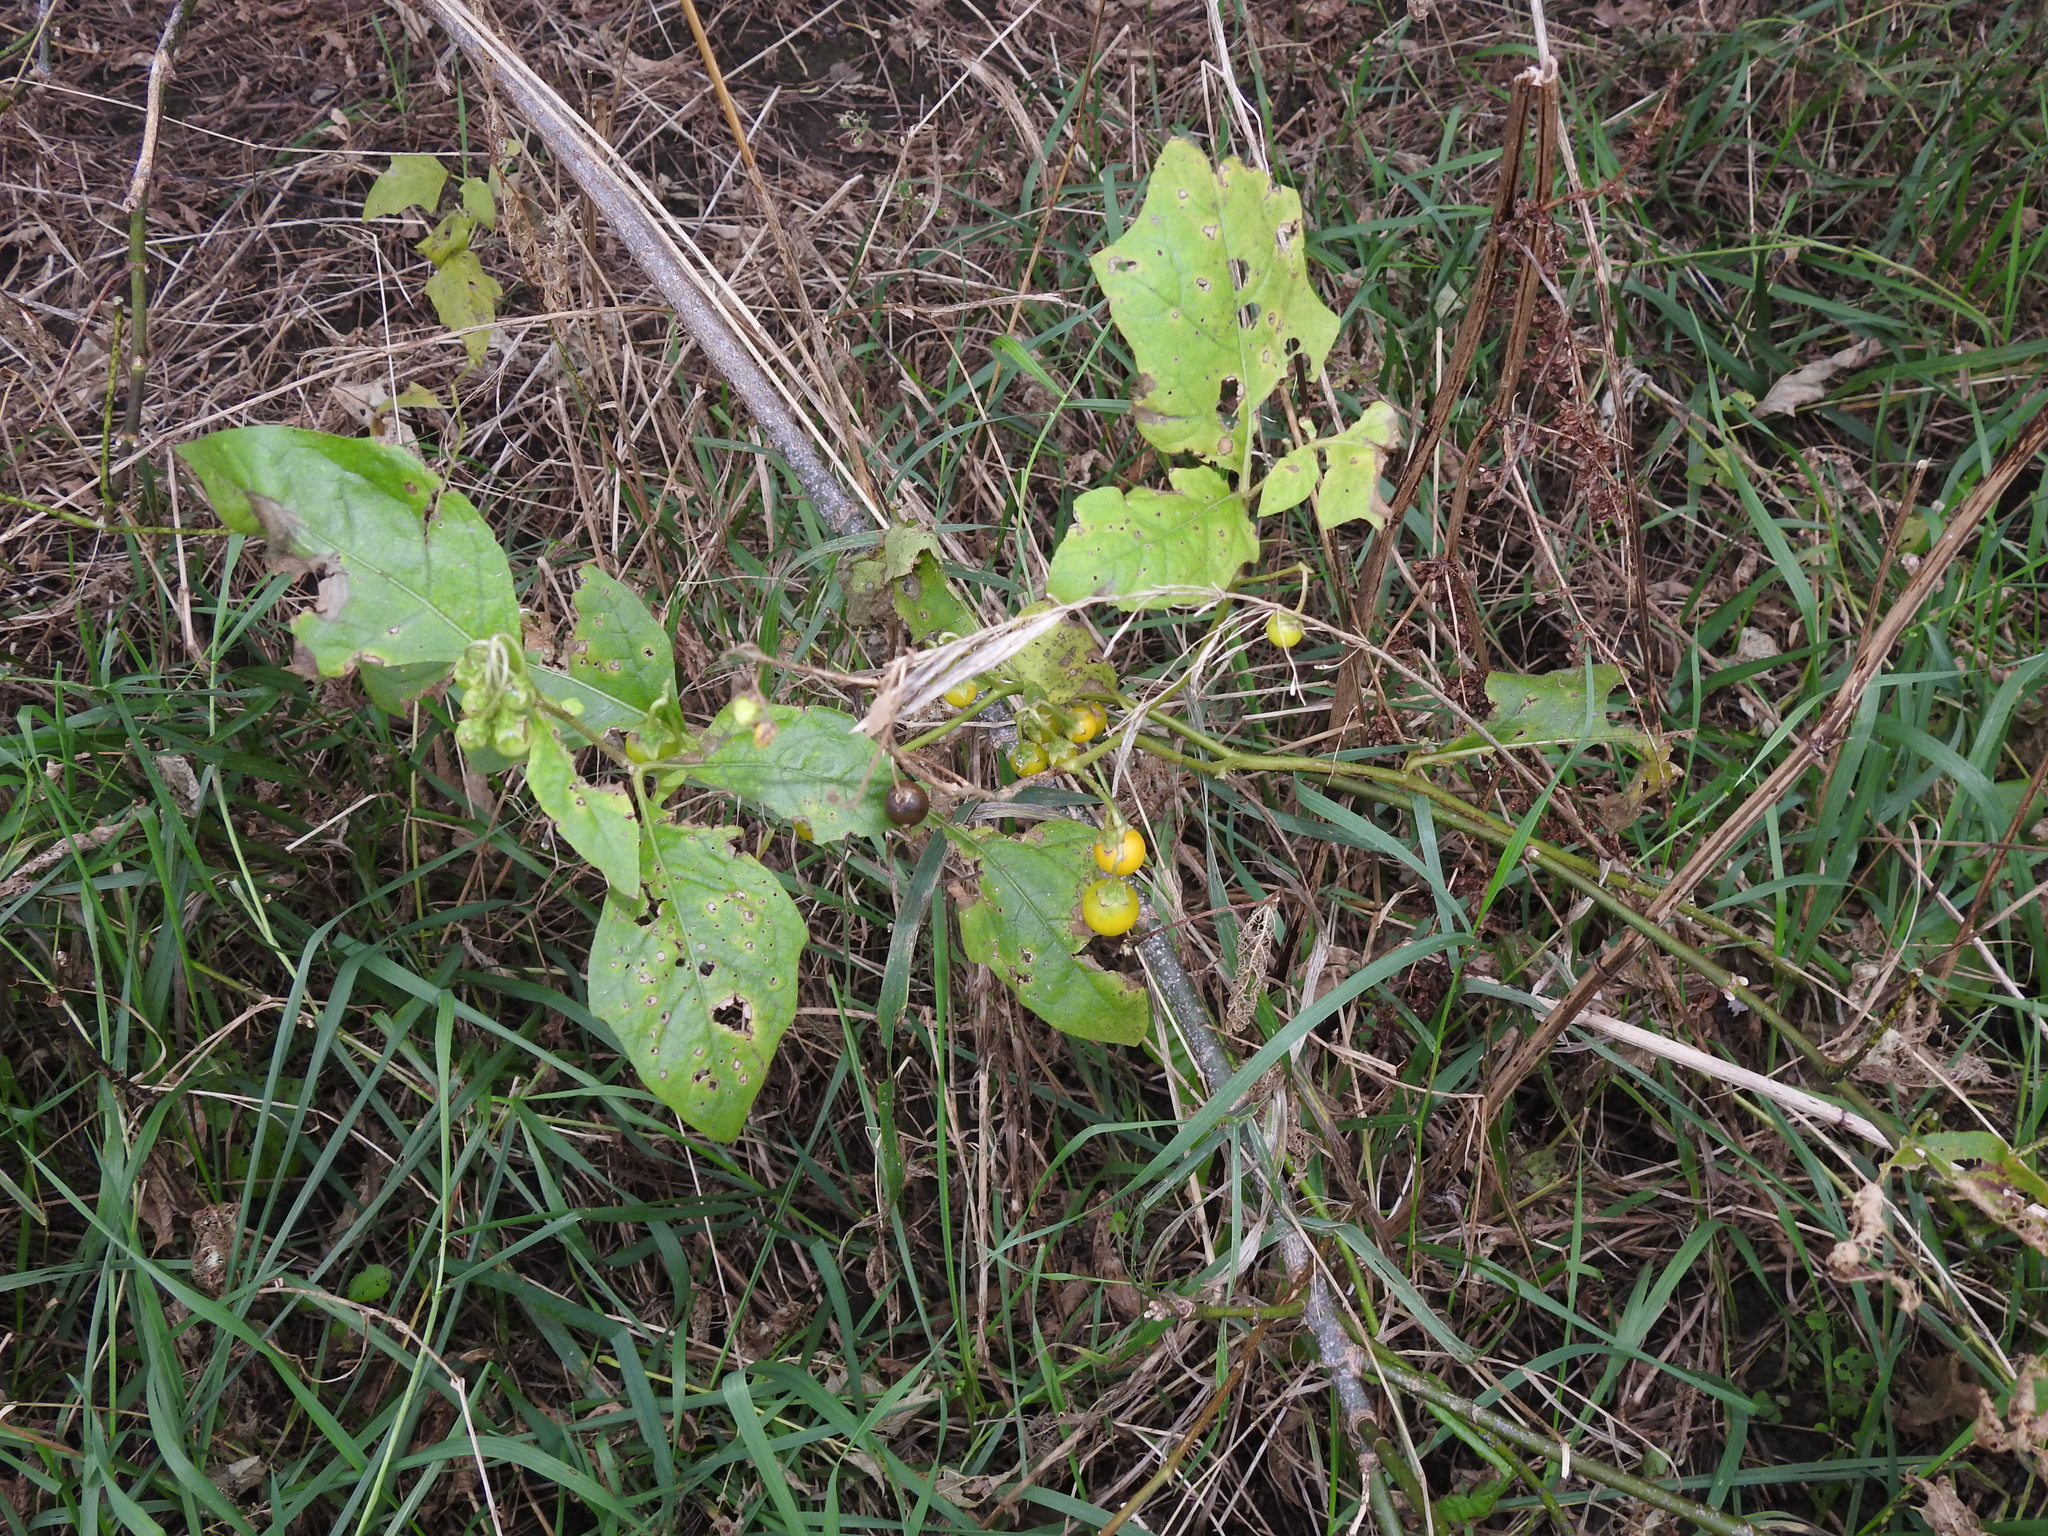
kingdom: Plantae
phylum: Tracheophyta
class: Magnoliopsida
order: Solanales
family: Solanaceae
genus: Solanum
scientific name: Solanum carolinense
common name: Horse-nettle
